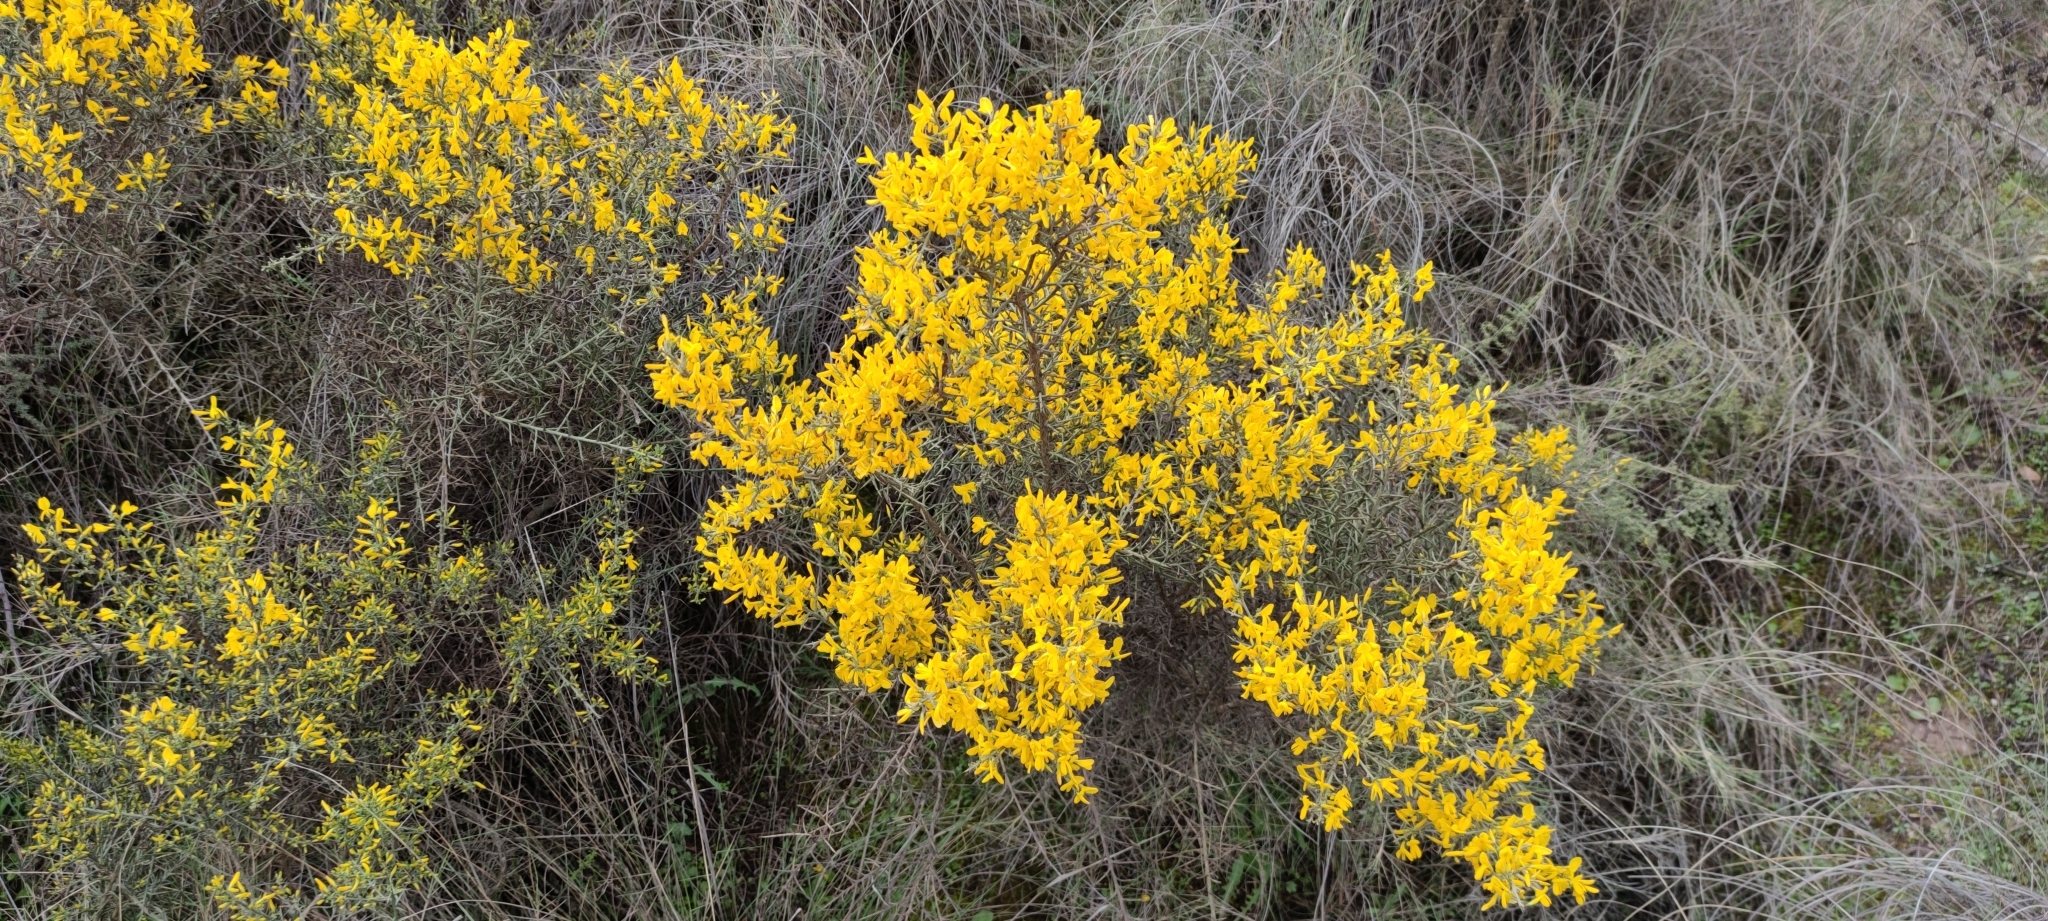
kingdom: Plantae
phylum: Tracheophyta
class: Magnoliopsida
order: Fabales
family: Fabaceae
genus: Genista
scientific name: Genista scorpius
